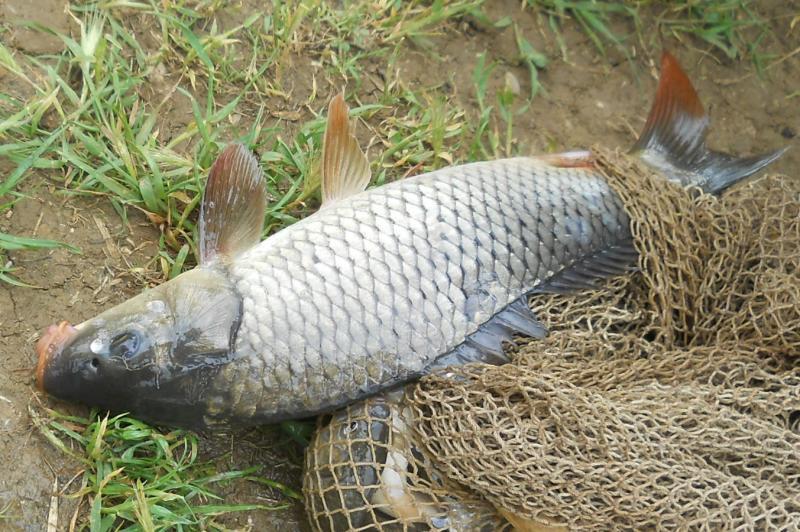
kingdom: Animalia
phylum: Chordata
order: Cypriniformes
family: Cyprinidae
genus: Cyprinus
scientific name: Cyprinus carpio
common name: Common carp
